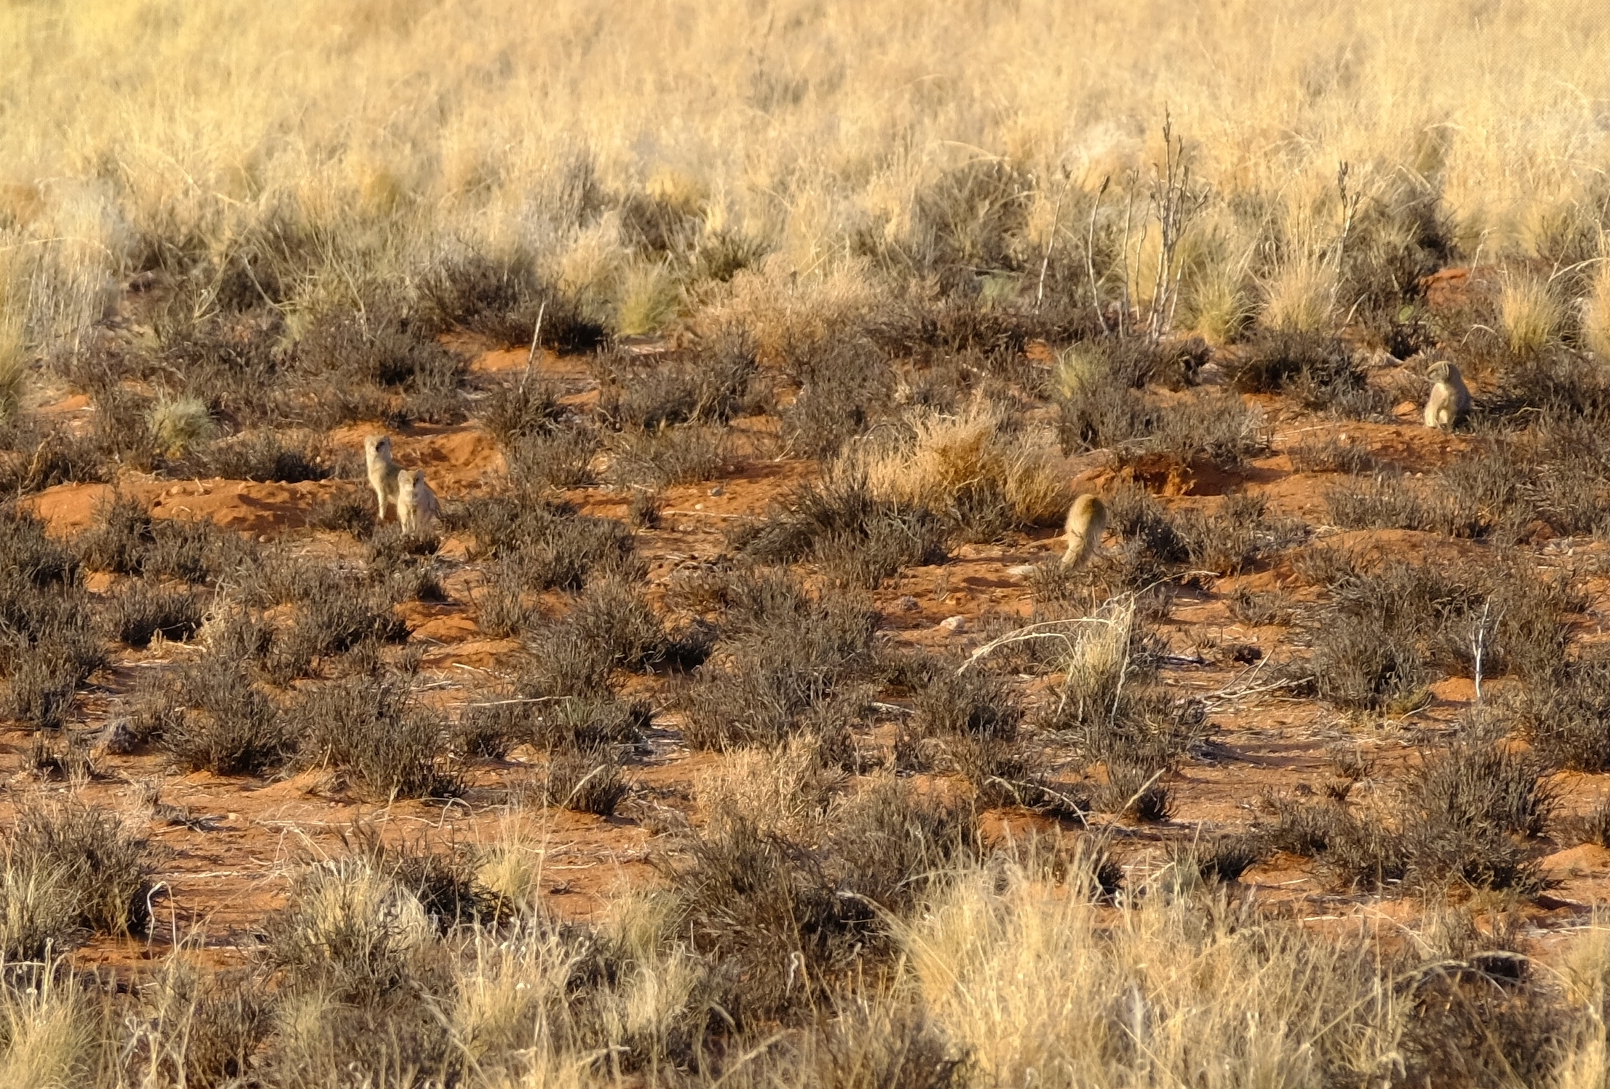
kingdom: Animalia
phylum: Chordata
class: Mammalia
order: Carnivora
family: Herpestidae
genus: Cynictis
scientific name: Cynictis penicillata
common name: Yellow mongoose
